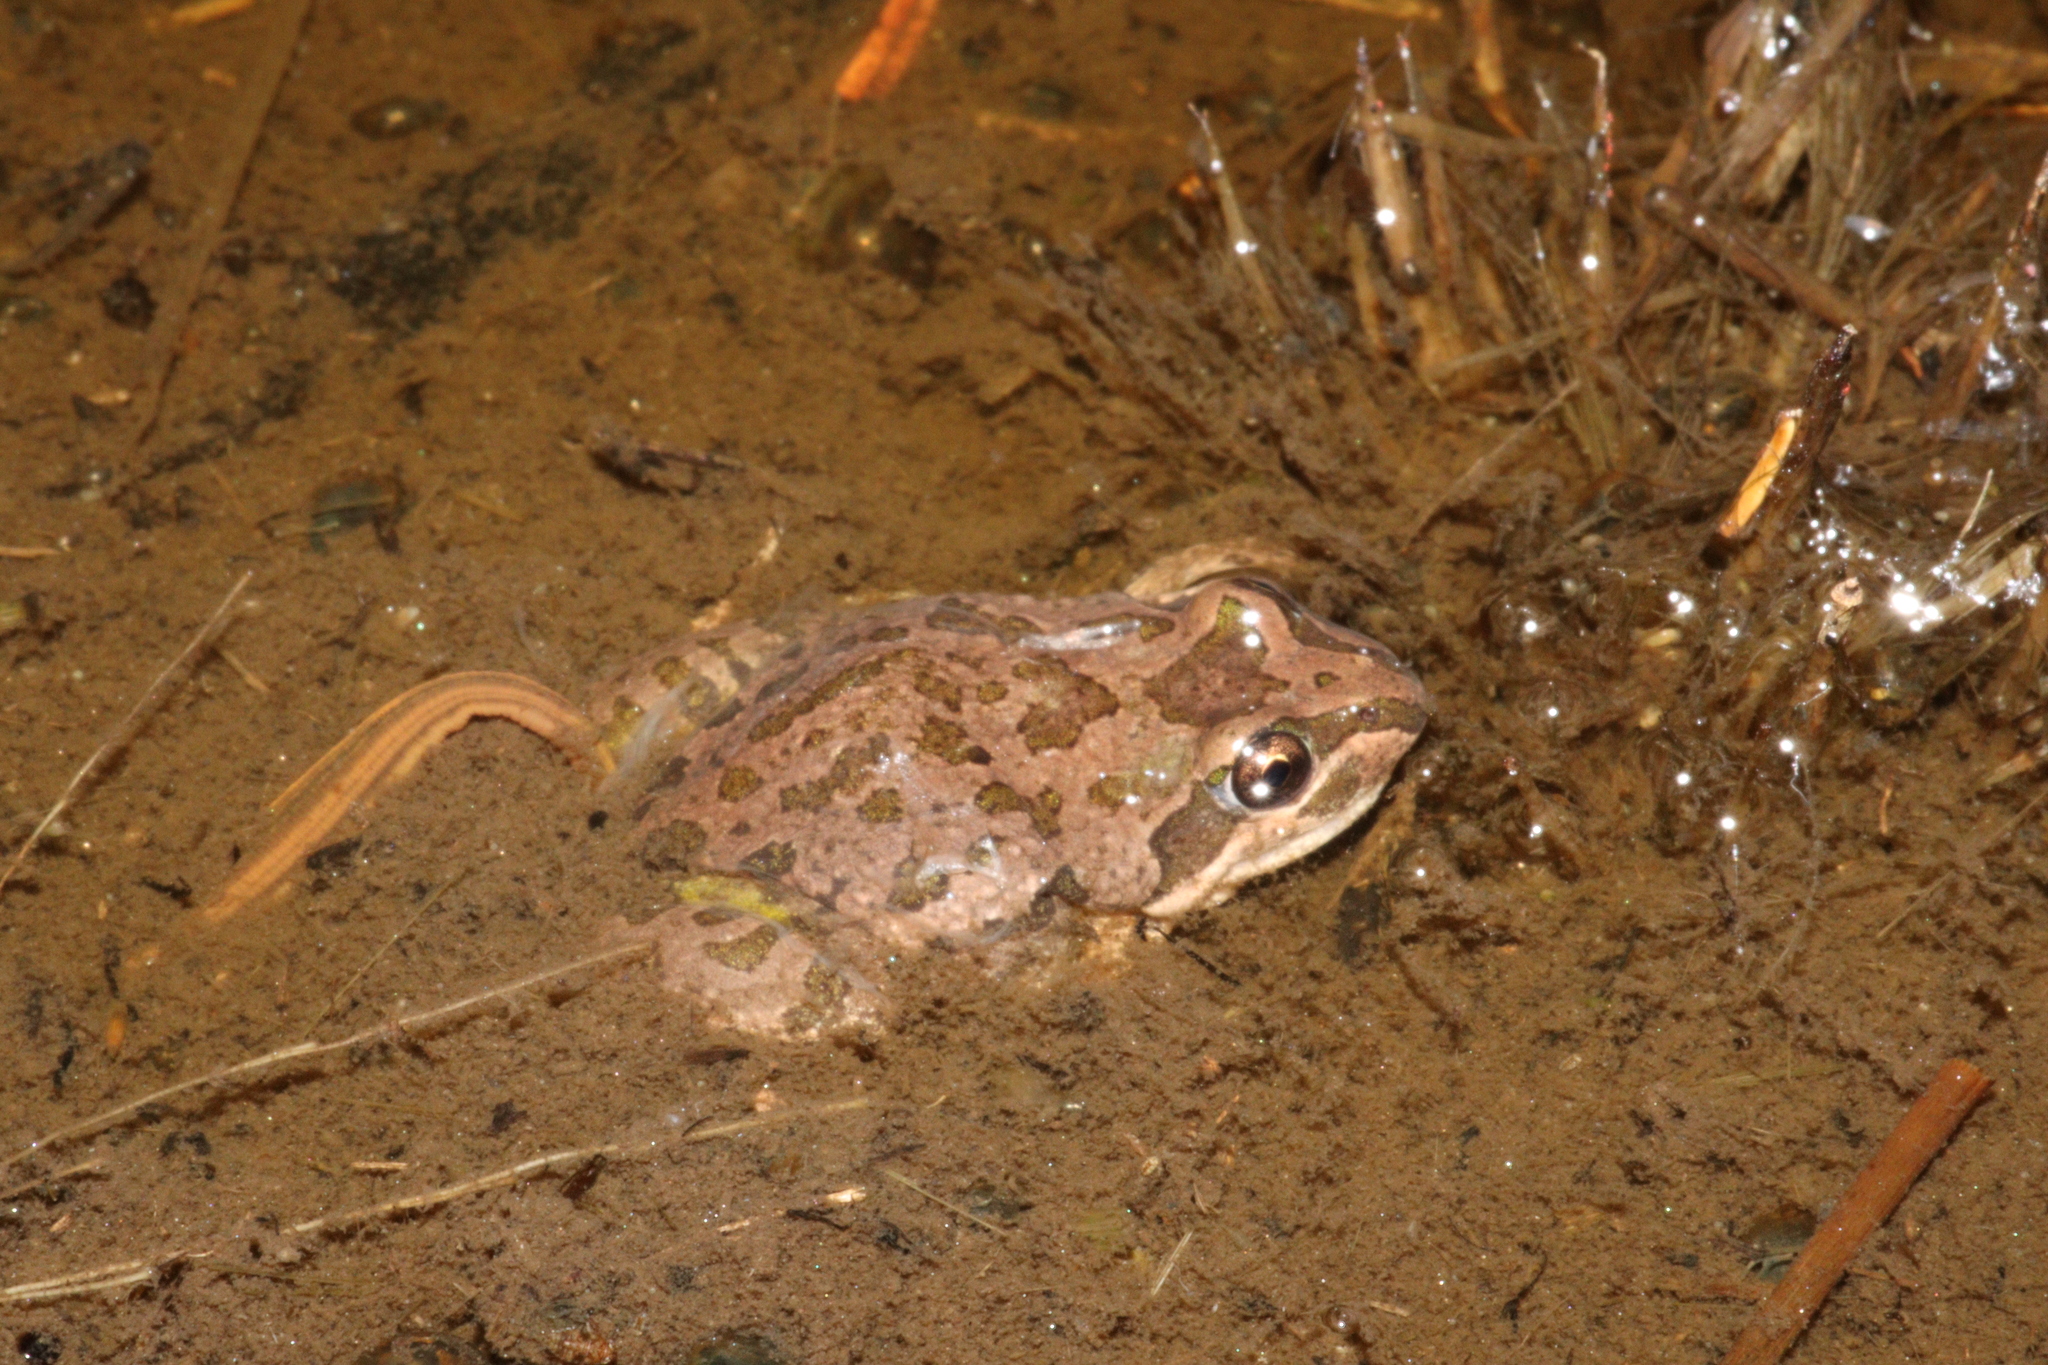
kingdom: Animalia
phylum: Chordata
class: Amphibia
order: Anura
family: Limnodynastidae
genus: Limnodynastes
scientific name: Limnodynastes tasmaniensis
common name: Spotted marsh frog
